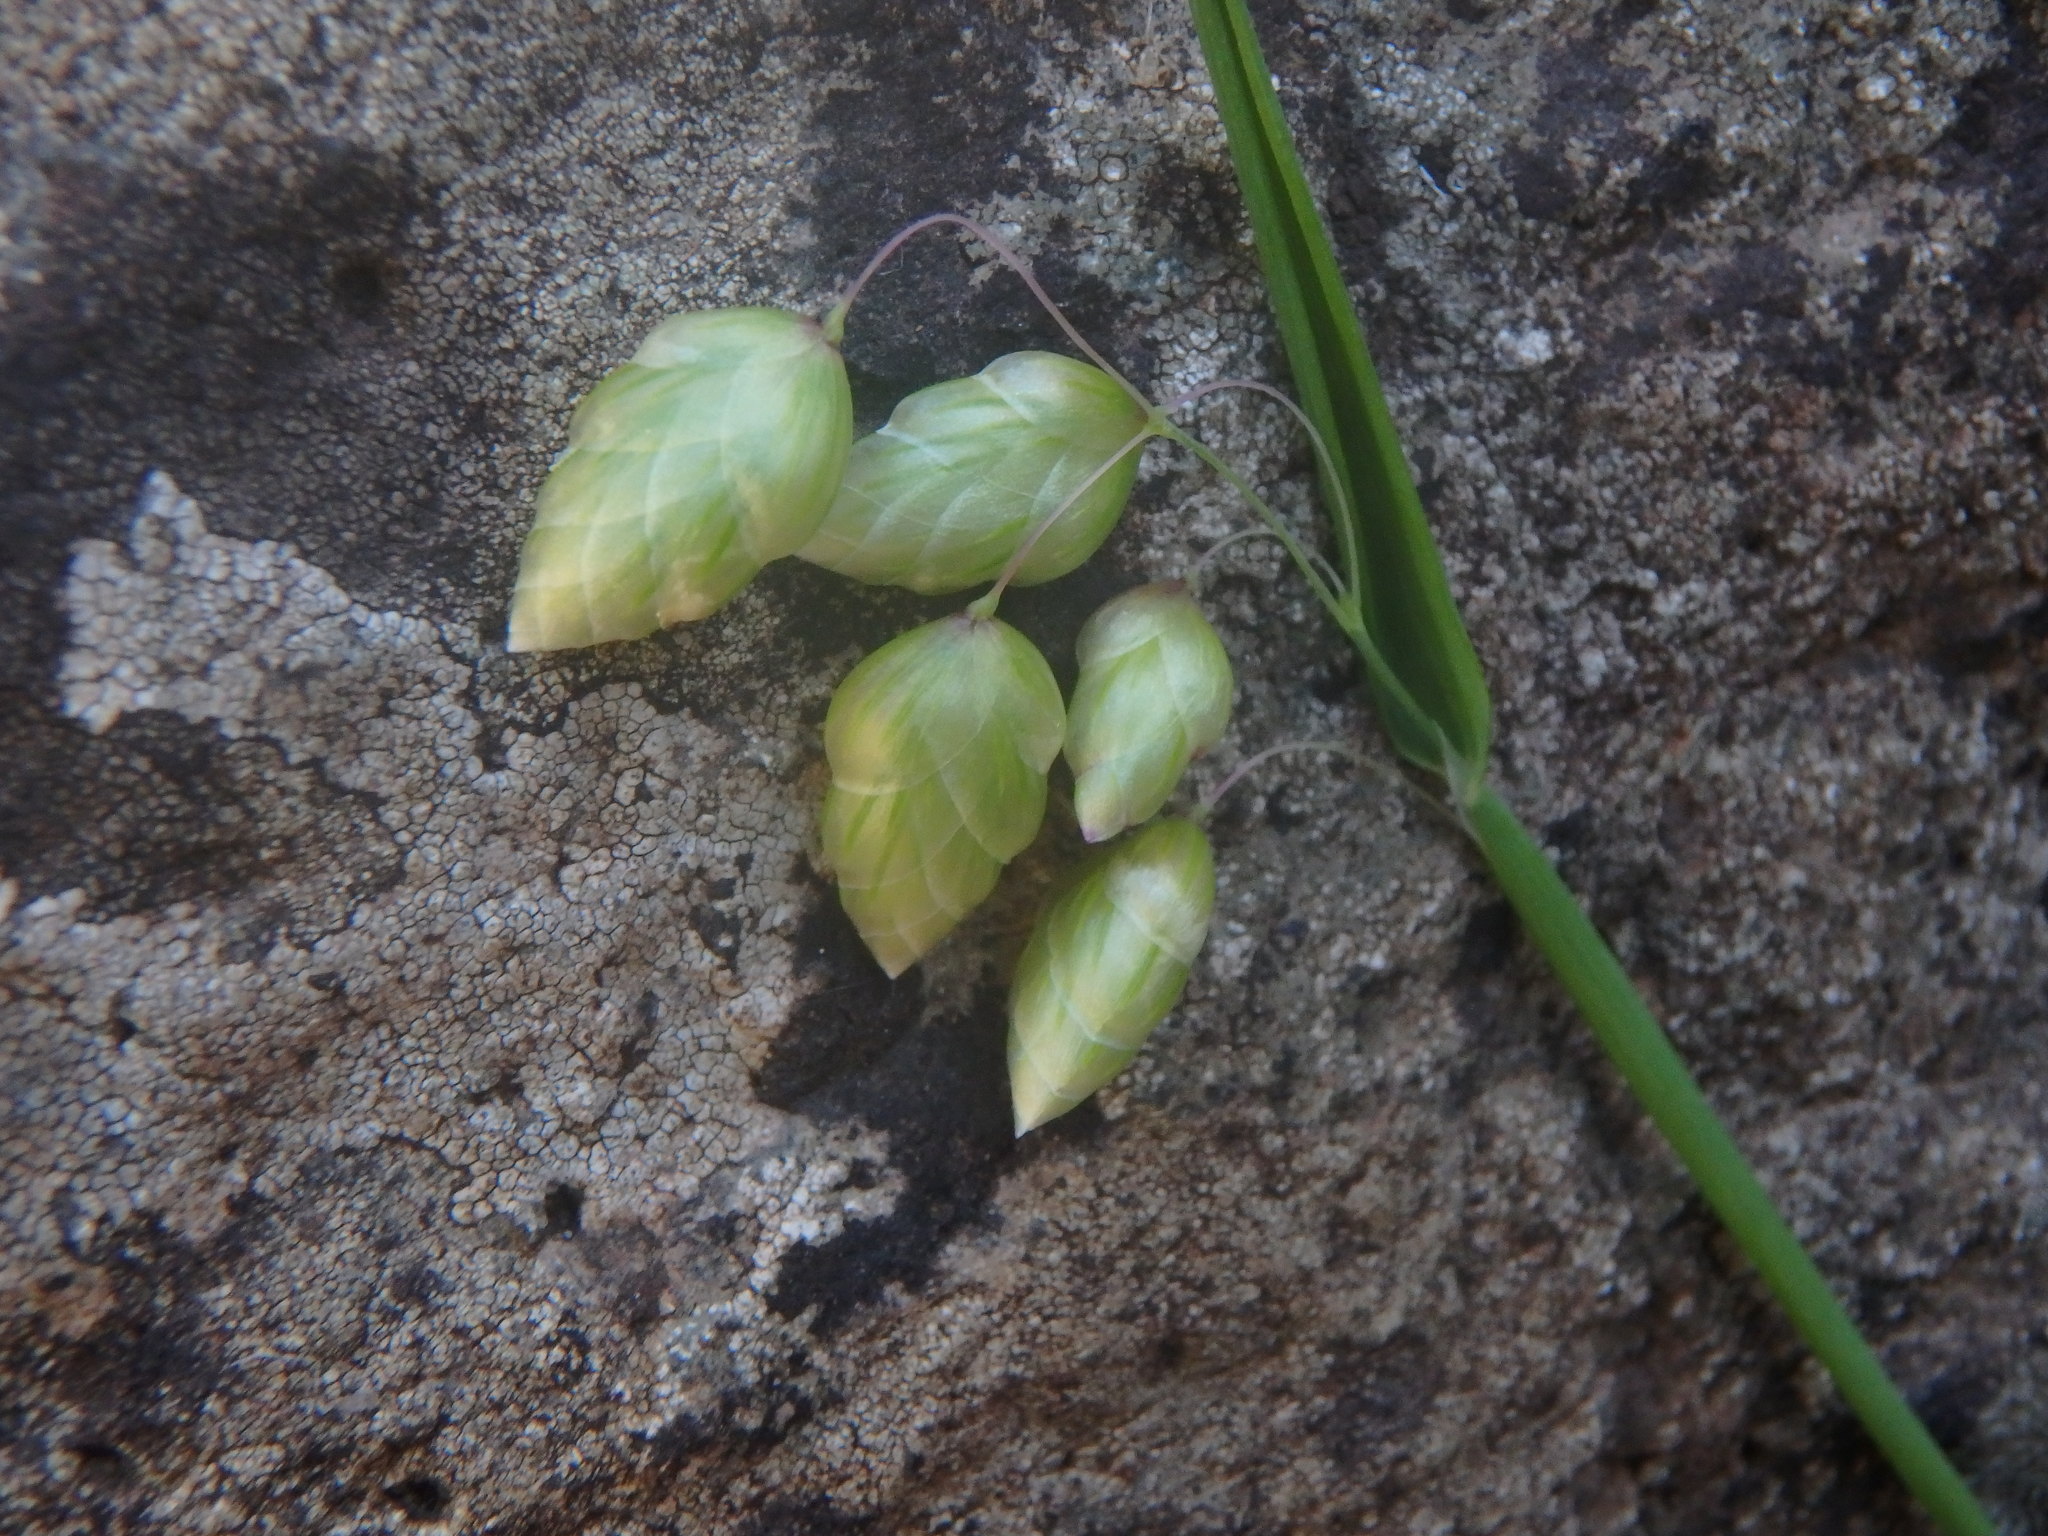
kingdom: Plantae
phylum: Tracheophyta
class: Liliopsida
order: Poales
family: Poaceae
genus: Briza
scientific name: Briza maxima
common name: Big quakinggrass
